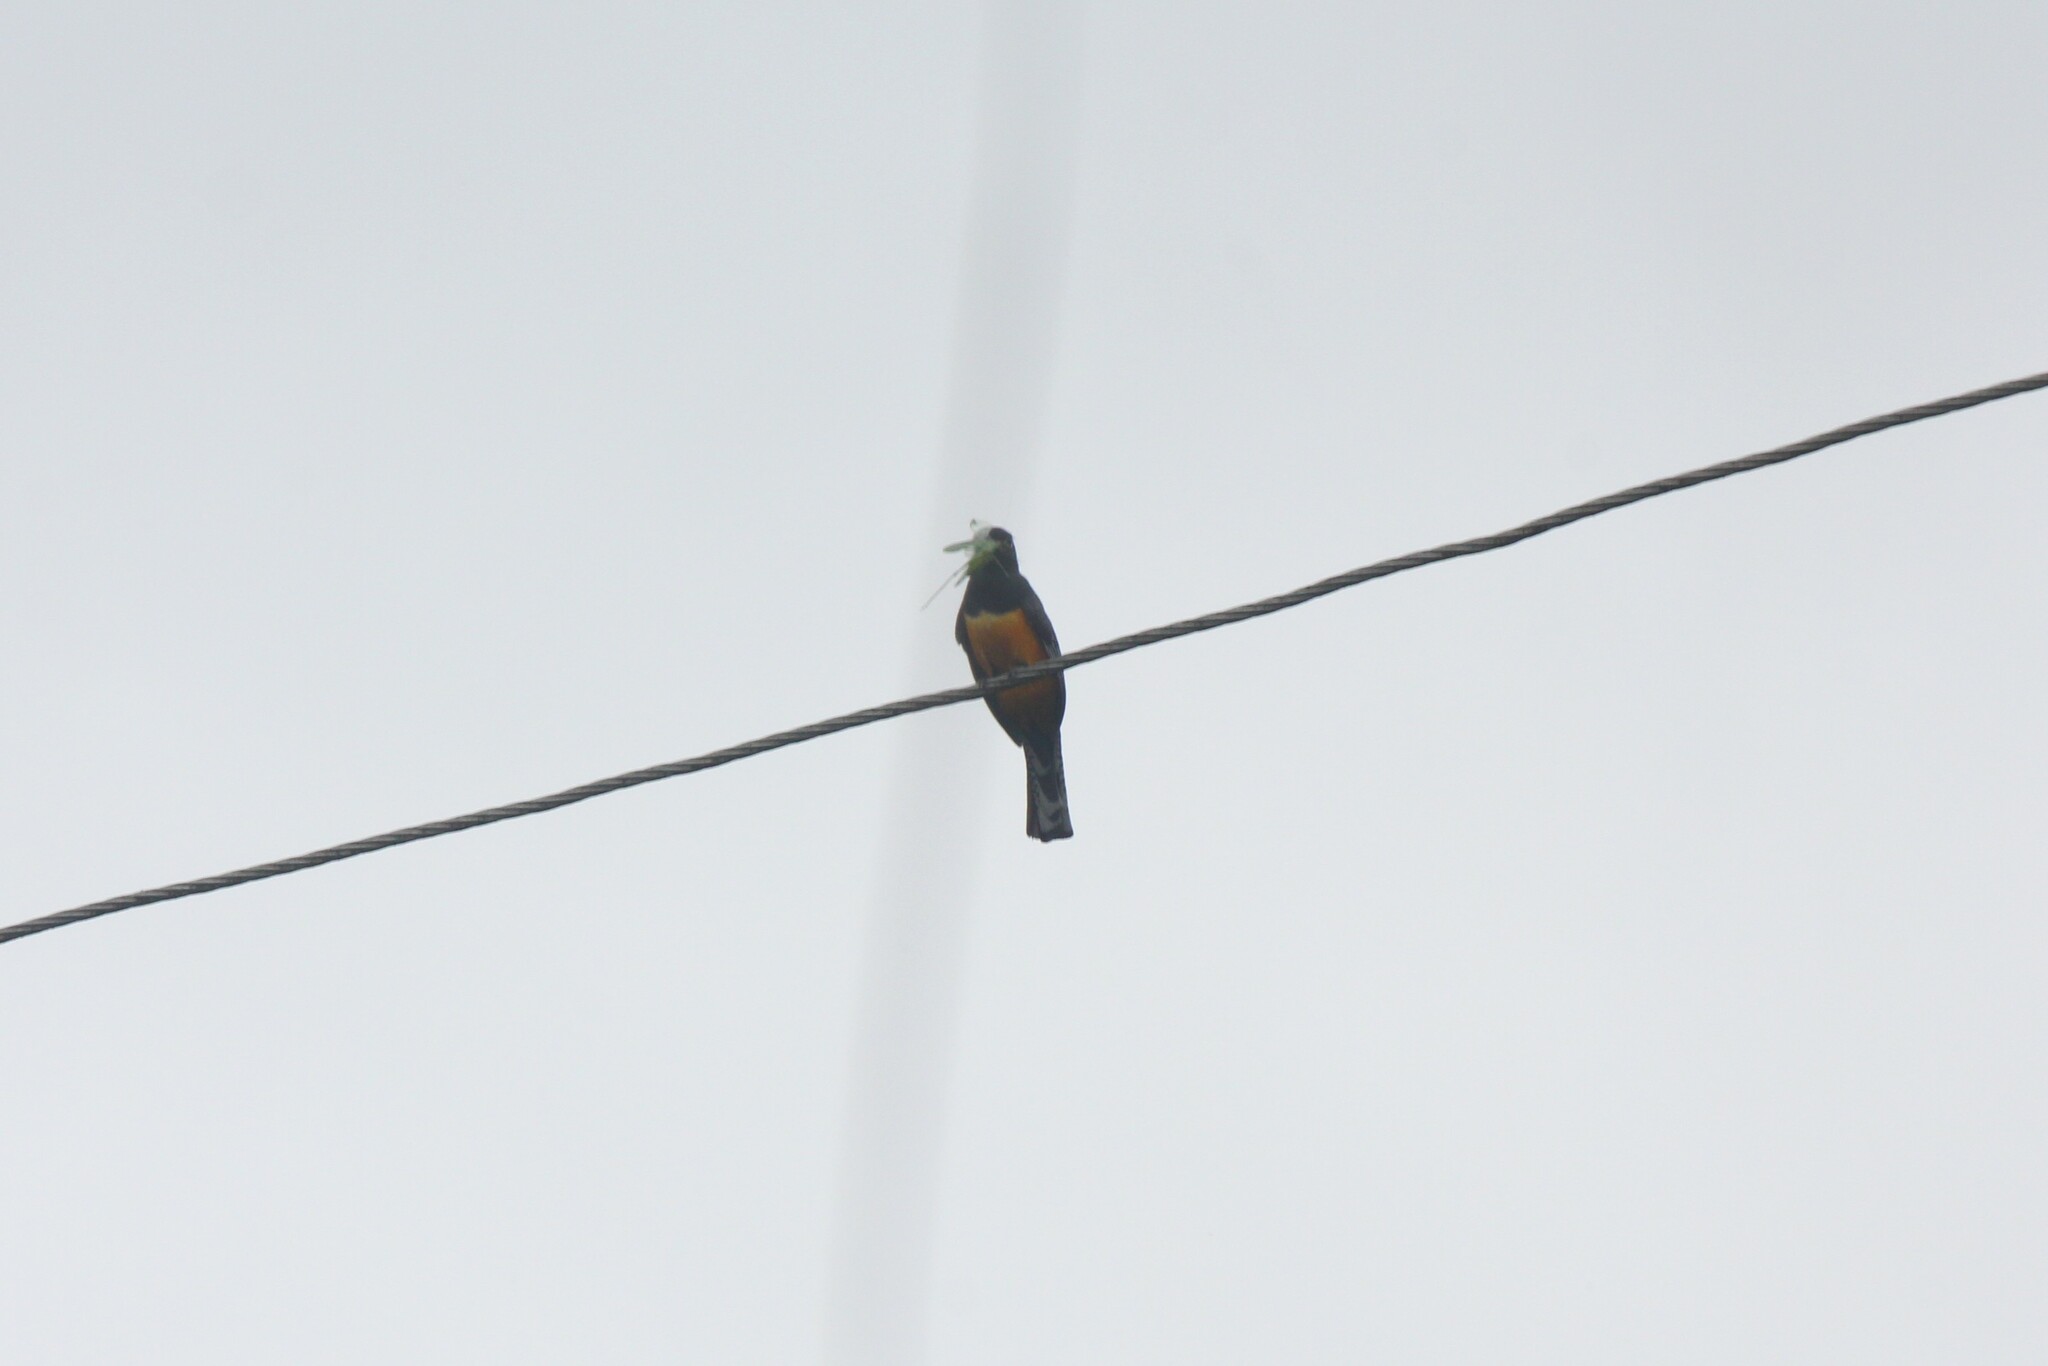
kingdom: Animalia
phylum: Chordata
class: Aves
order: Trogoniformes
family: Trogonidae
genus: Trogon
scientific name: Trogon caligatus
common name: Gartered trogon
